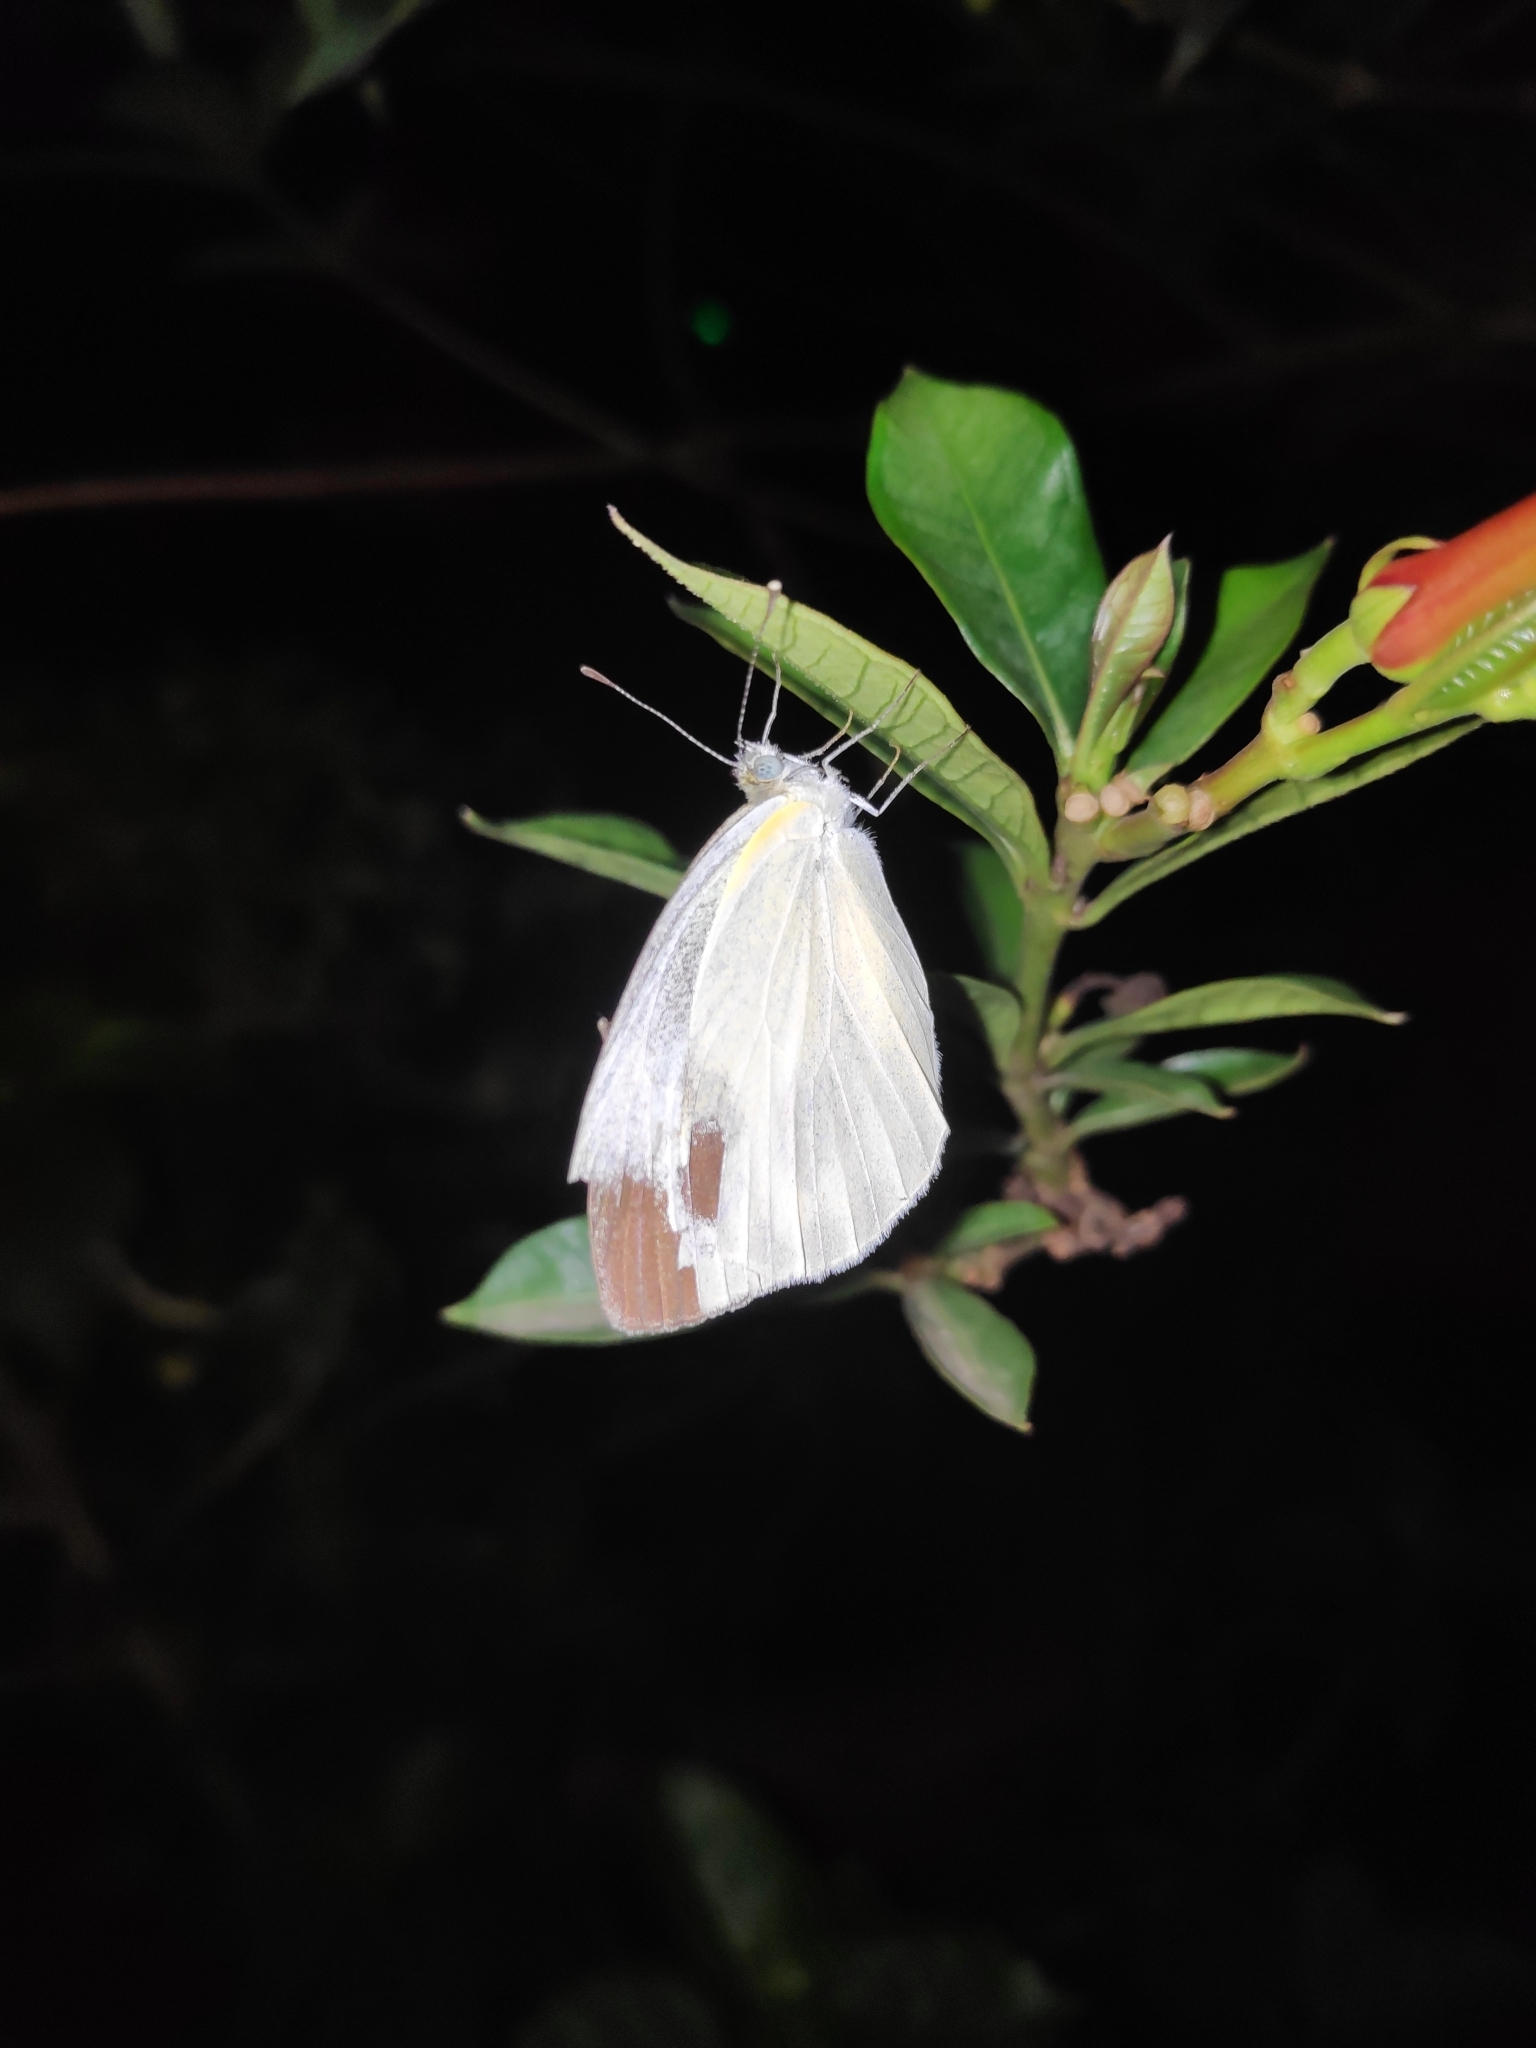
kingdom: Animalia
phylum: Arthropoda
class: Insecta
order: Lepidoptera
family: Pieridae
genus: Pieris
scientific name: Pieris canidia
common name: Indian cabbage white
